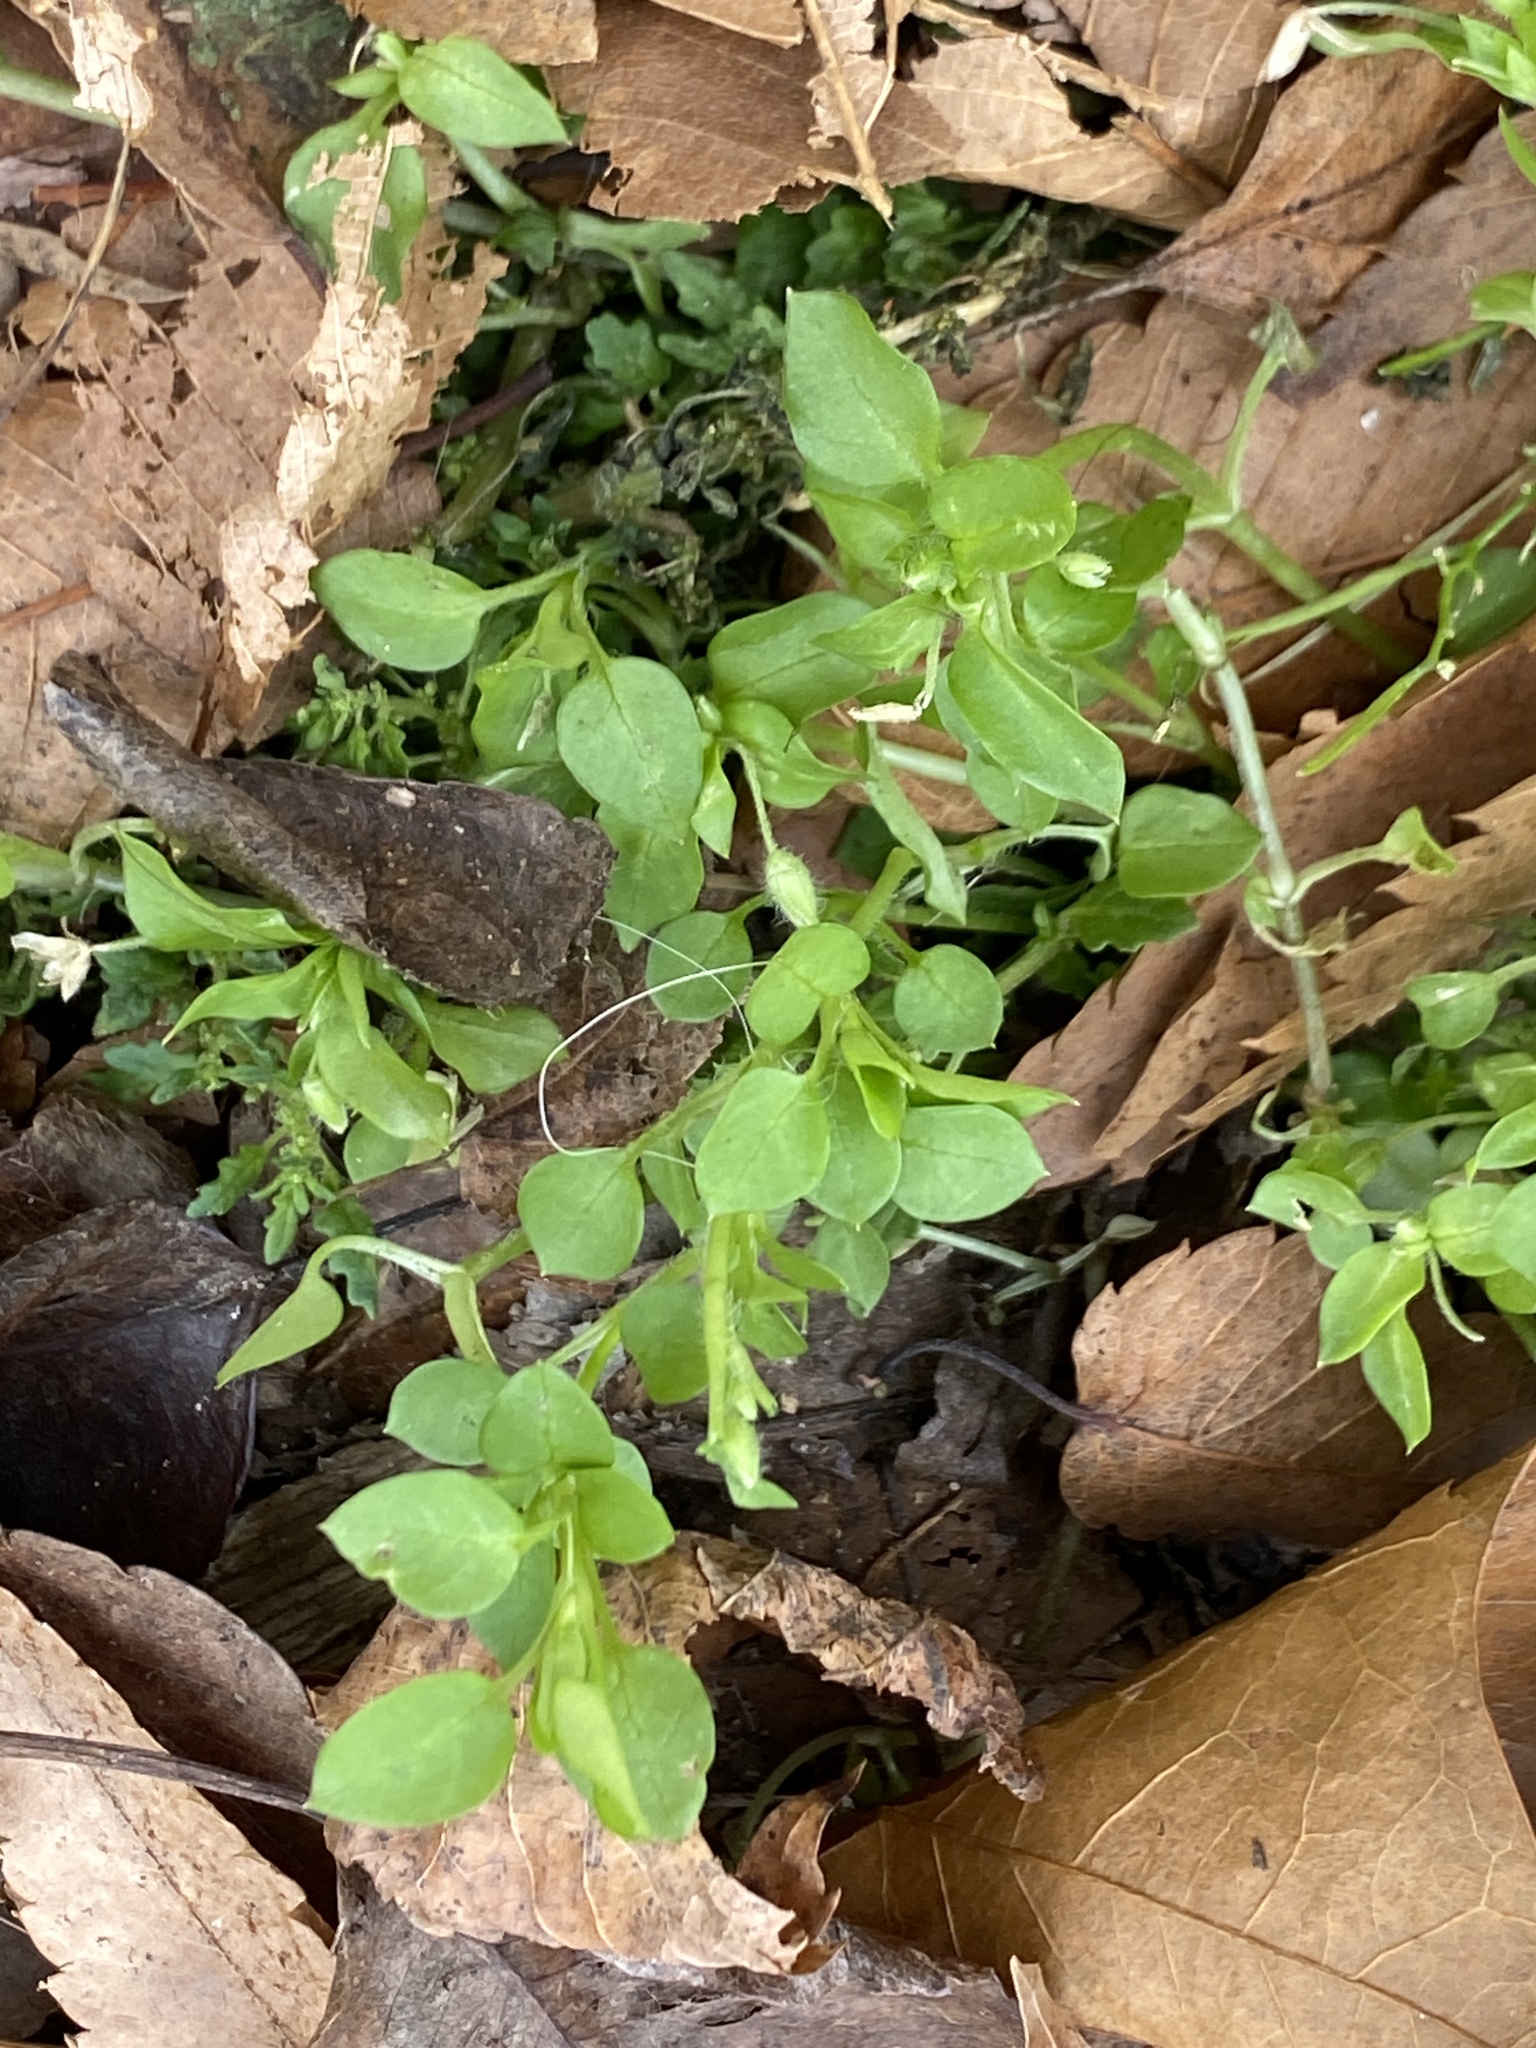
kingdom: Plantae
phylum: Tracheophyta
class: Magnoliopsida
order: Caryophyllales
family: Caryophyllaceae
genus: Stellaria
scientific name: Stellaria media
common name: Common chickweed
